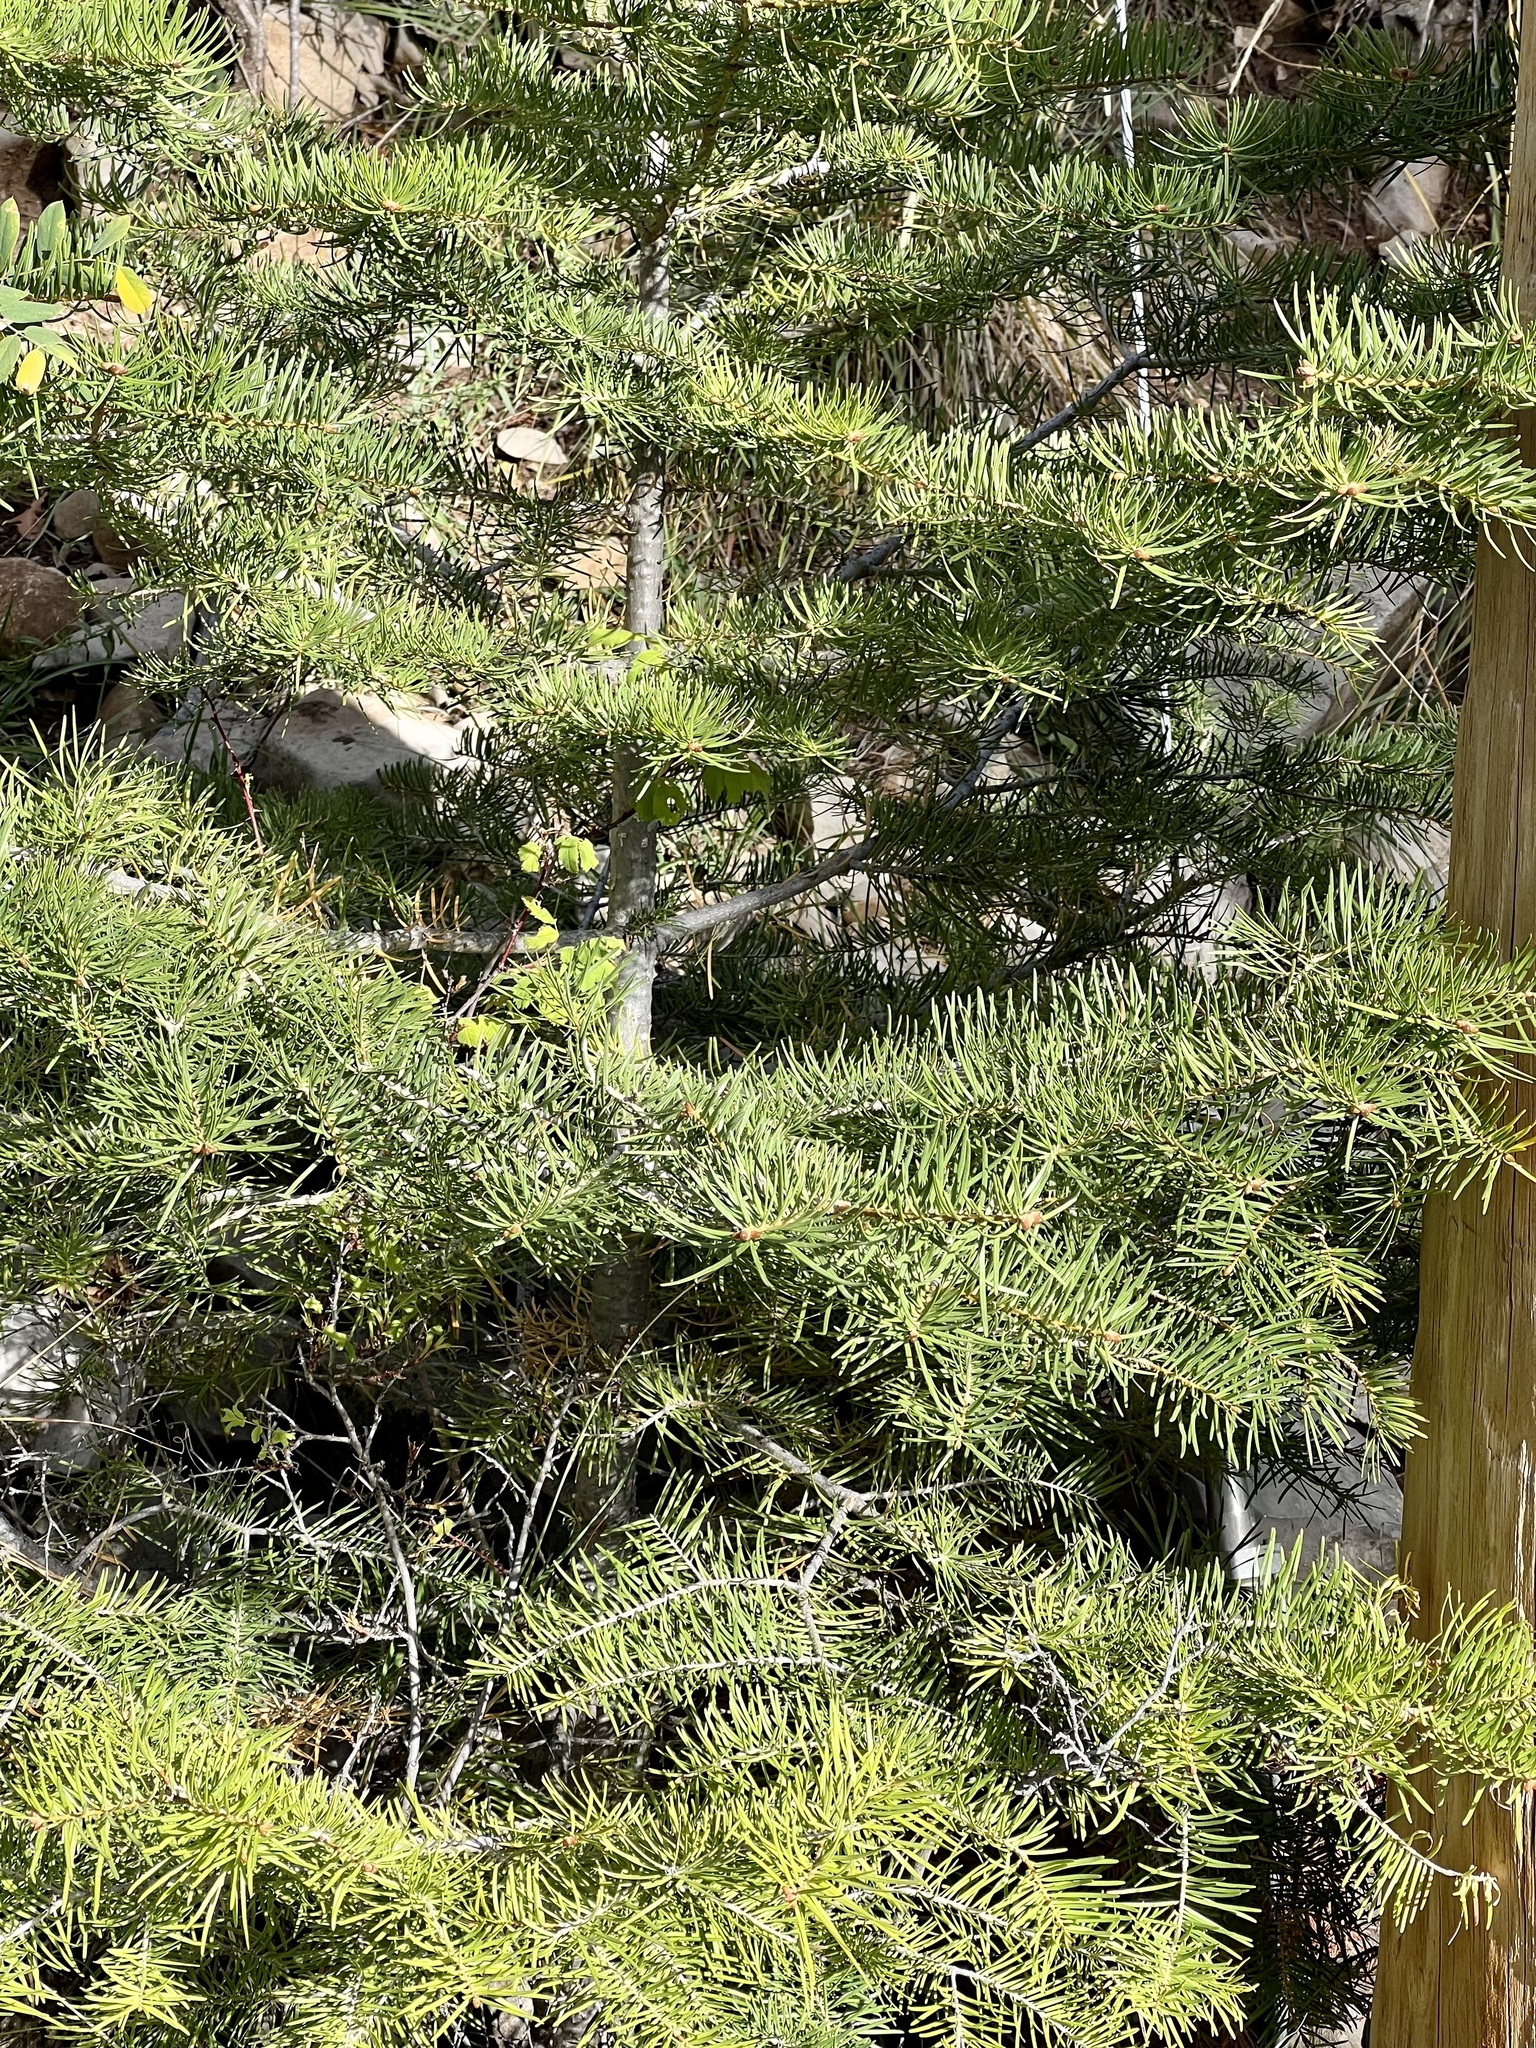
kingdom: Plantae
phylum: Tracheophyta
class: Pinopsida
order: Pinales
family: Pinaceae
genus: Abies
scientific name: Abies concolor
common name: Colorado fir
